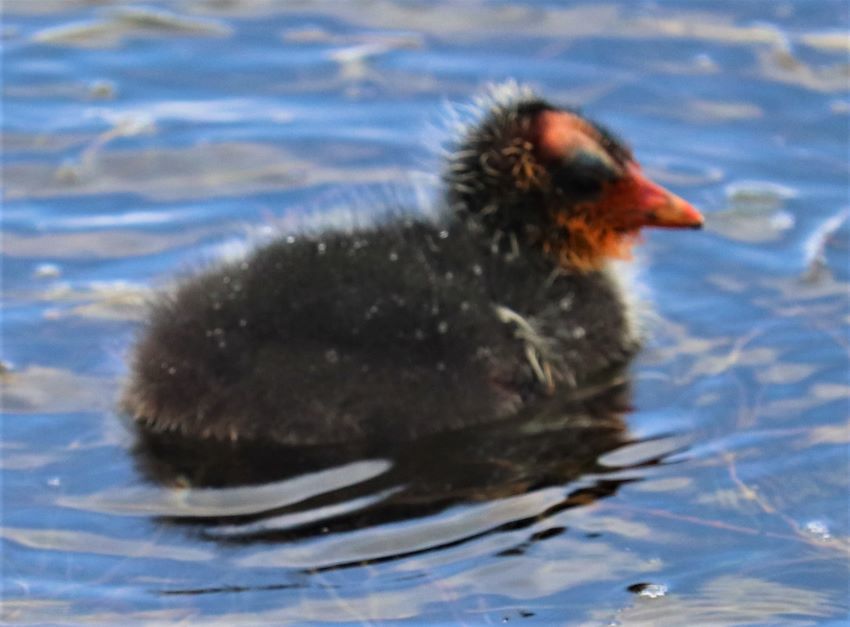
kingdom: Animalia
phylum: Chordata
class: Aves
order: Gruiformes
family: Rallidae
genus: Fulica
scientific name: Fulica cristata
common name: Red-knobbed coot
